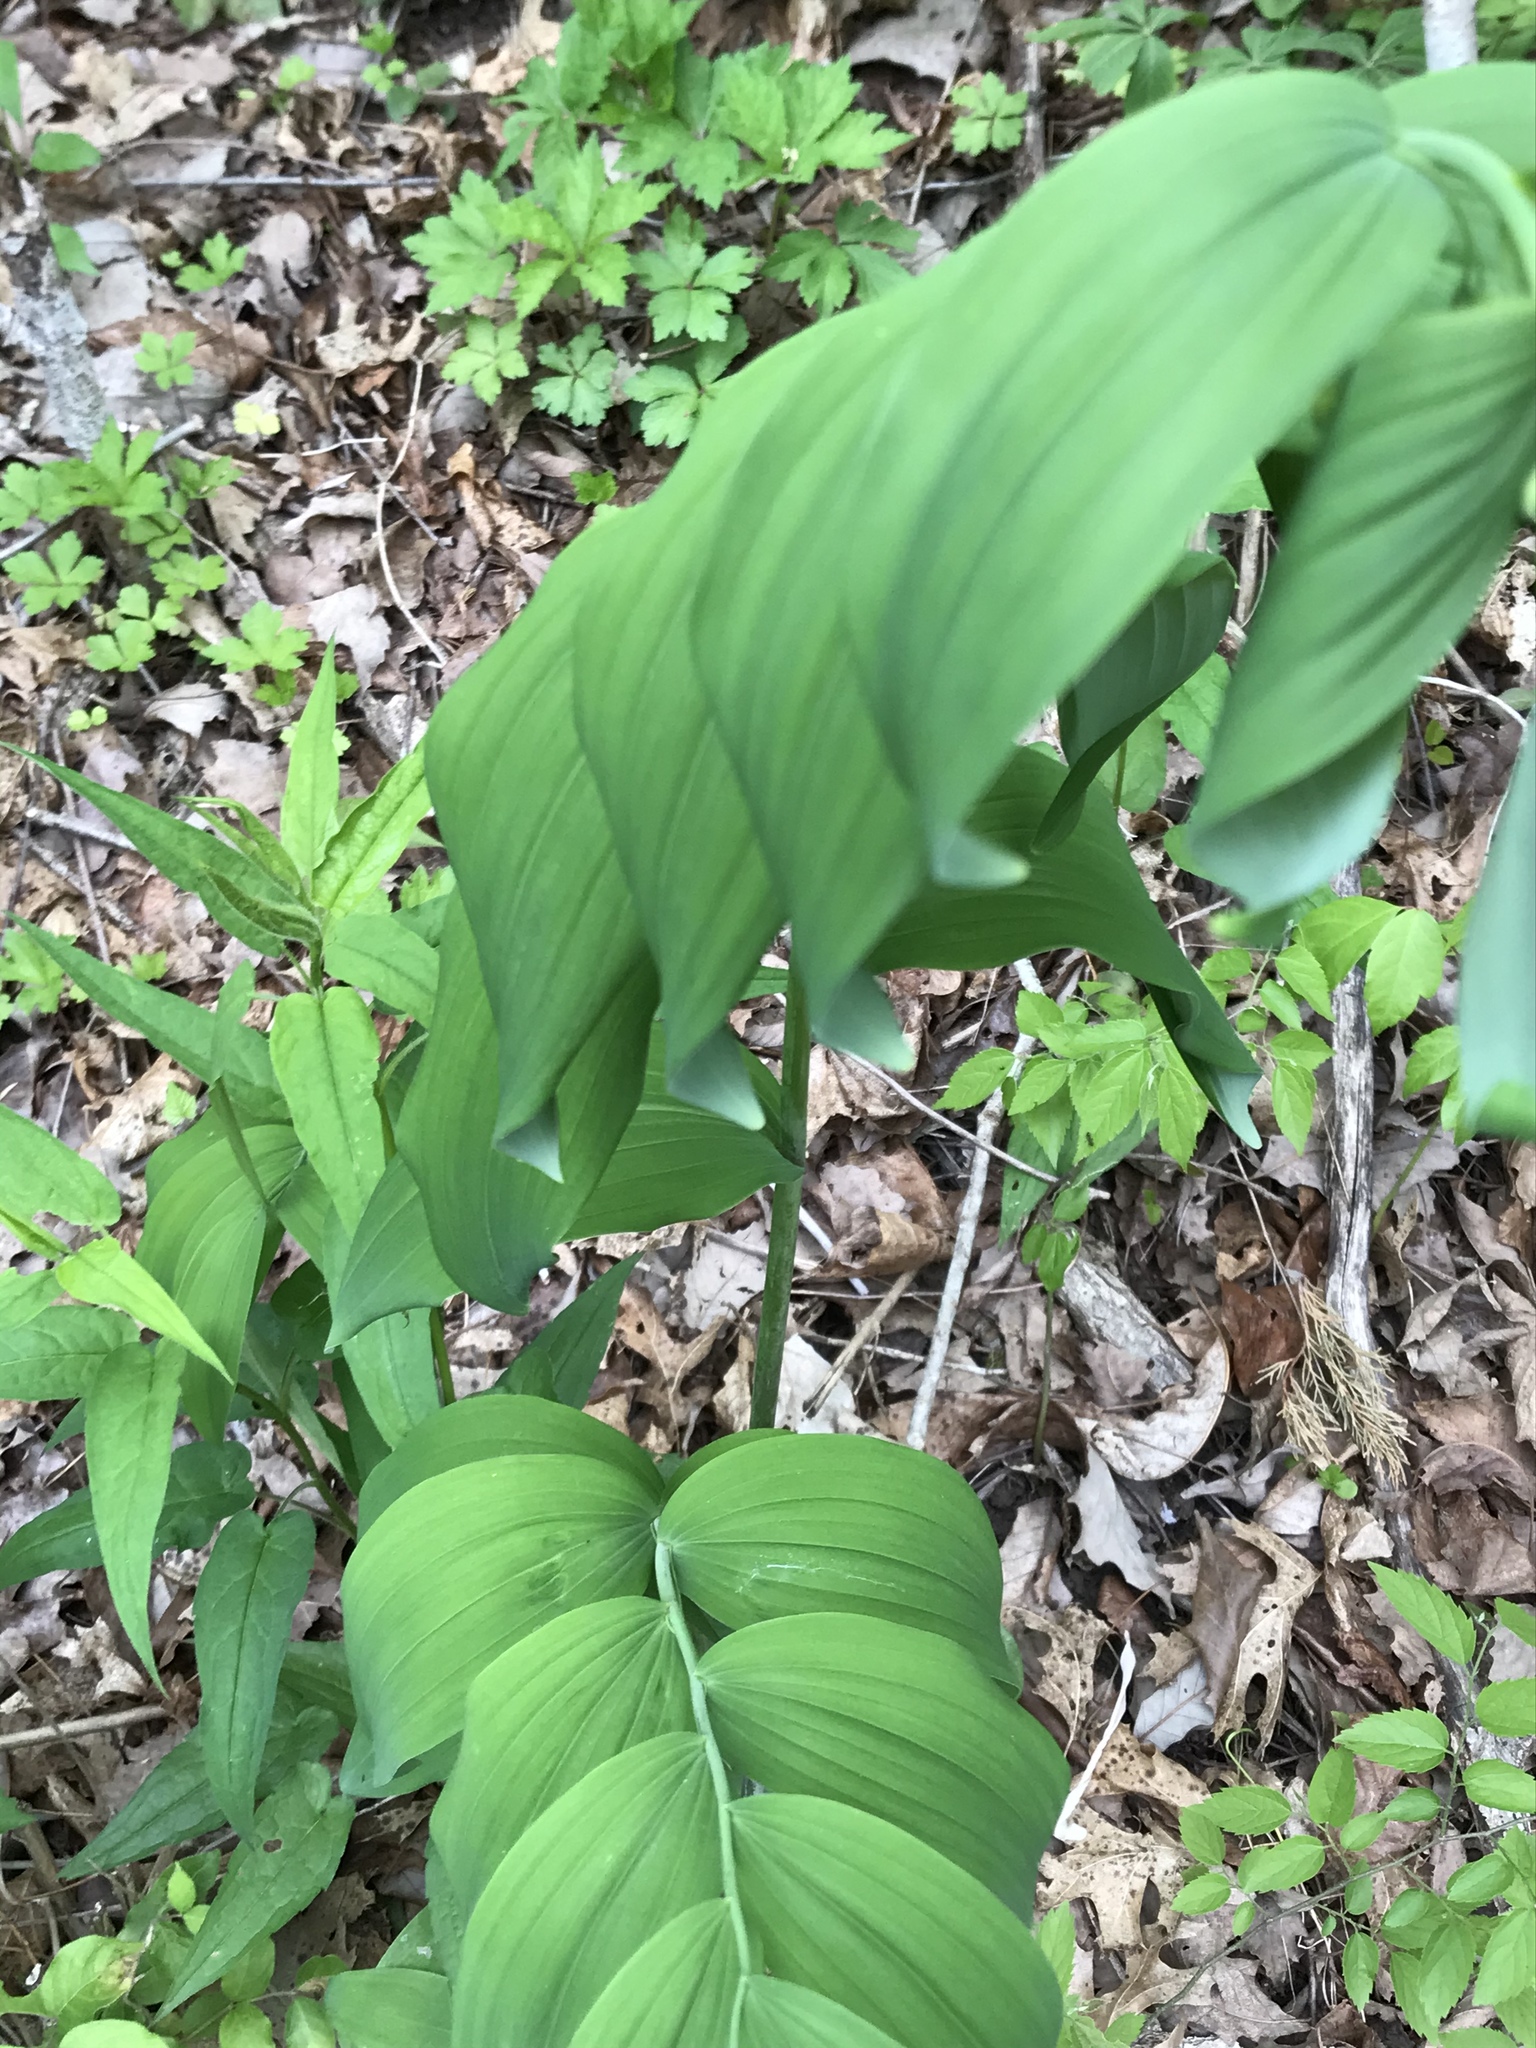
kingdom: Plantae
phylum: Tracheophyta
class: Liliopsida
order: Asparagales
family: Asparagaceae
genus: Polygonatum
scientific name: Polygonatum biflorum
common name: American solomon's-seal
